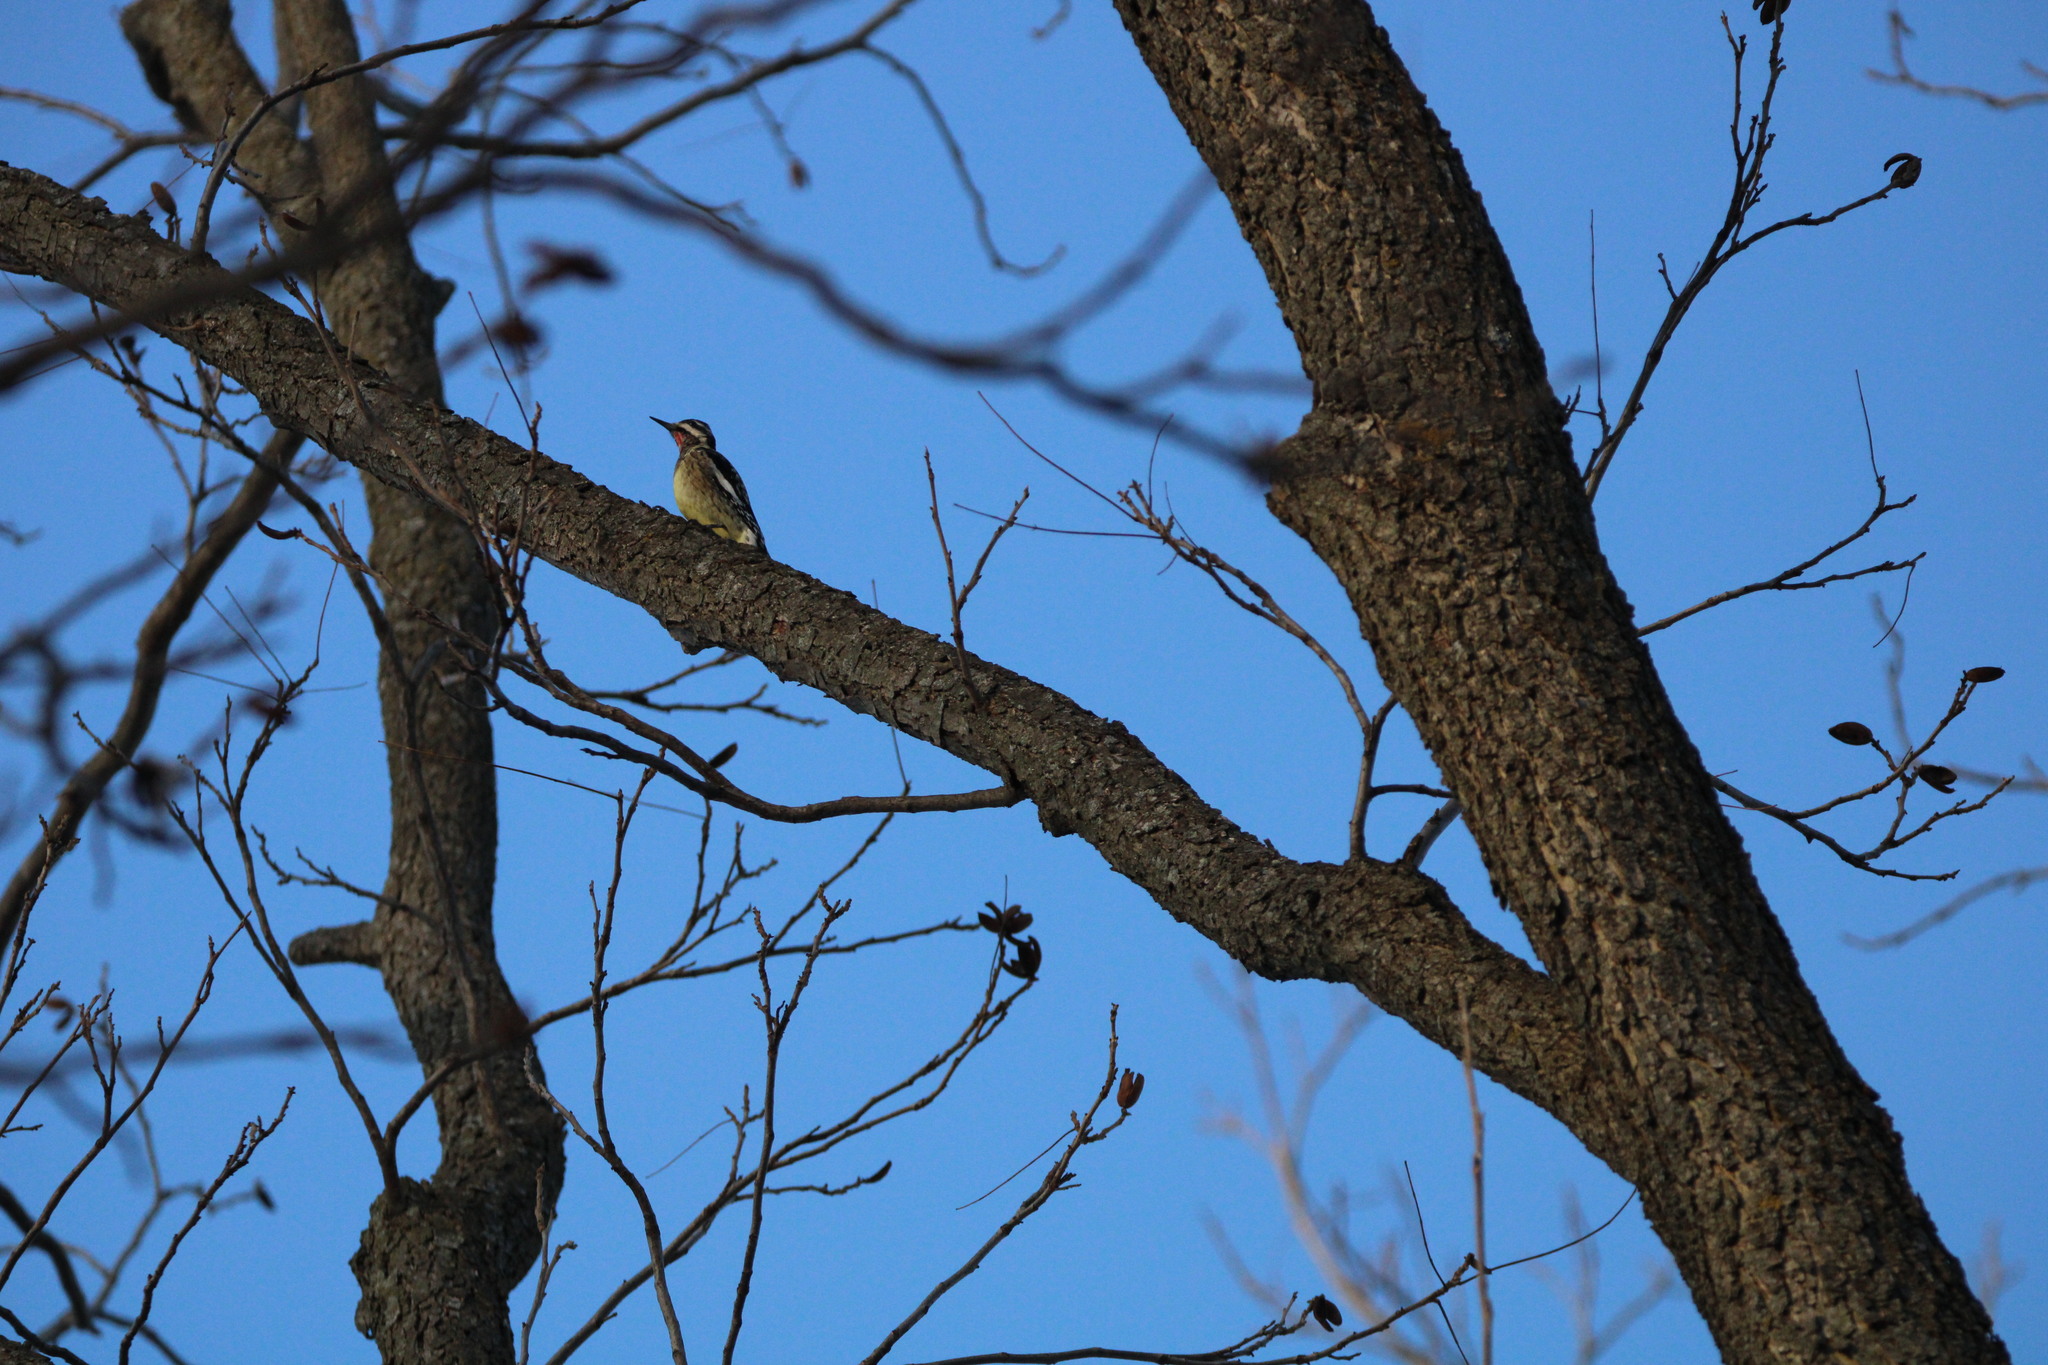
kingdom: Animalia
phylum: Chordata
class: Aves
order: Piciformes
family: Picidae
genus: Sphyrapicus
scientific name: Sphyrapicus varius
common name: Yellow-bellied sapsucker
